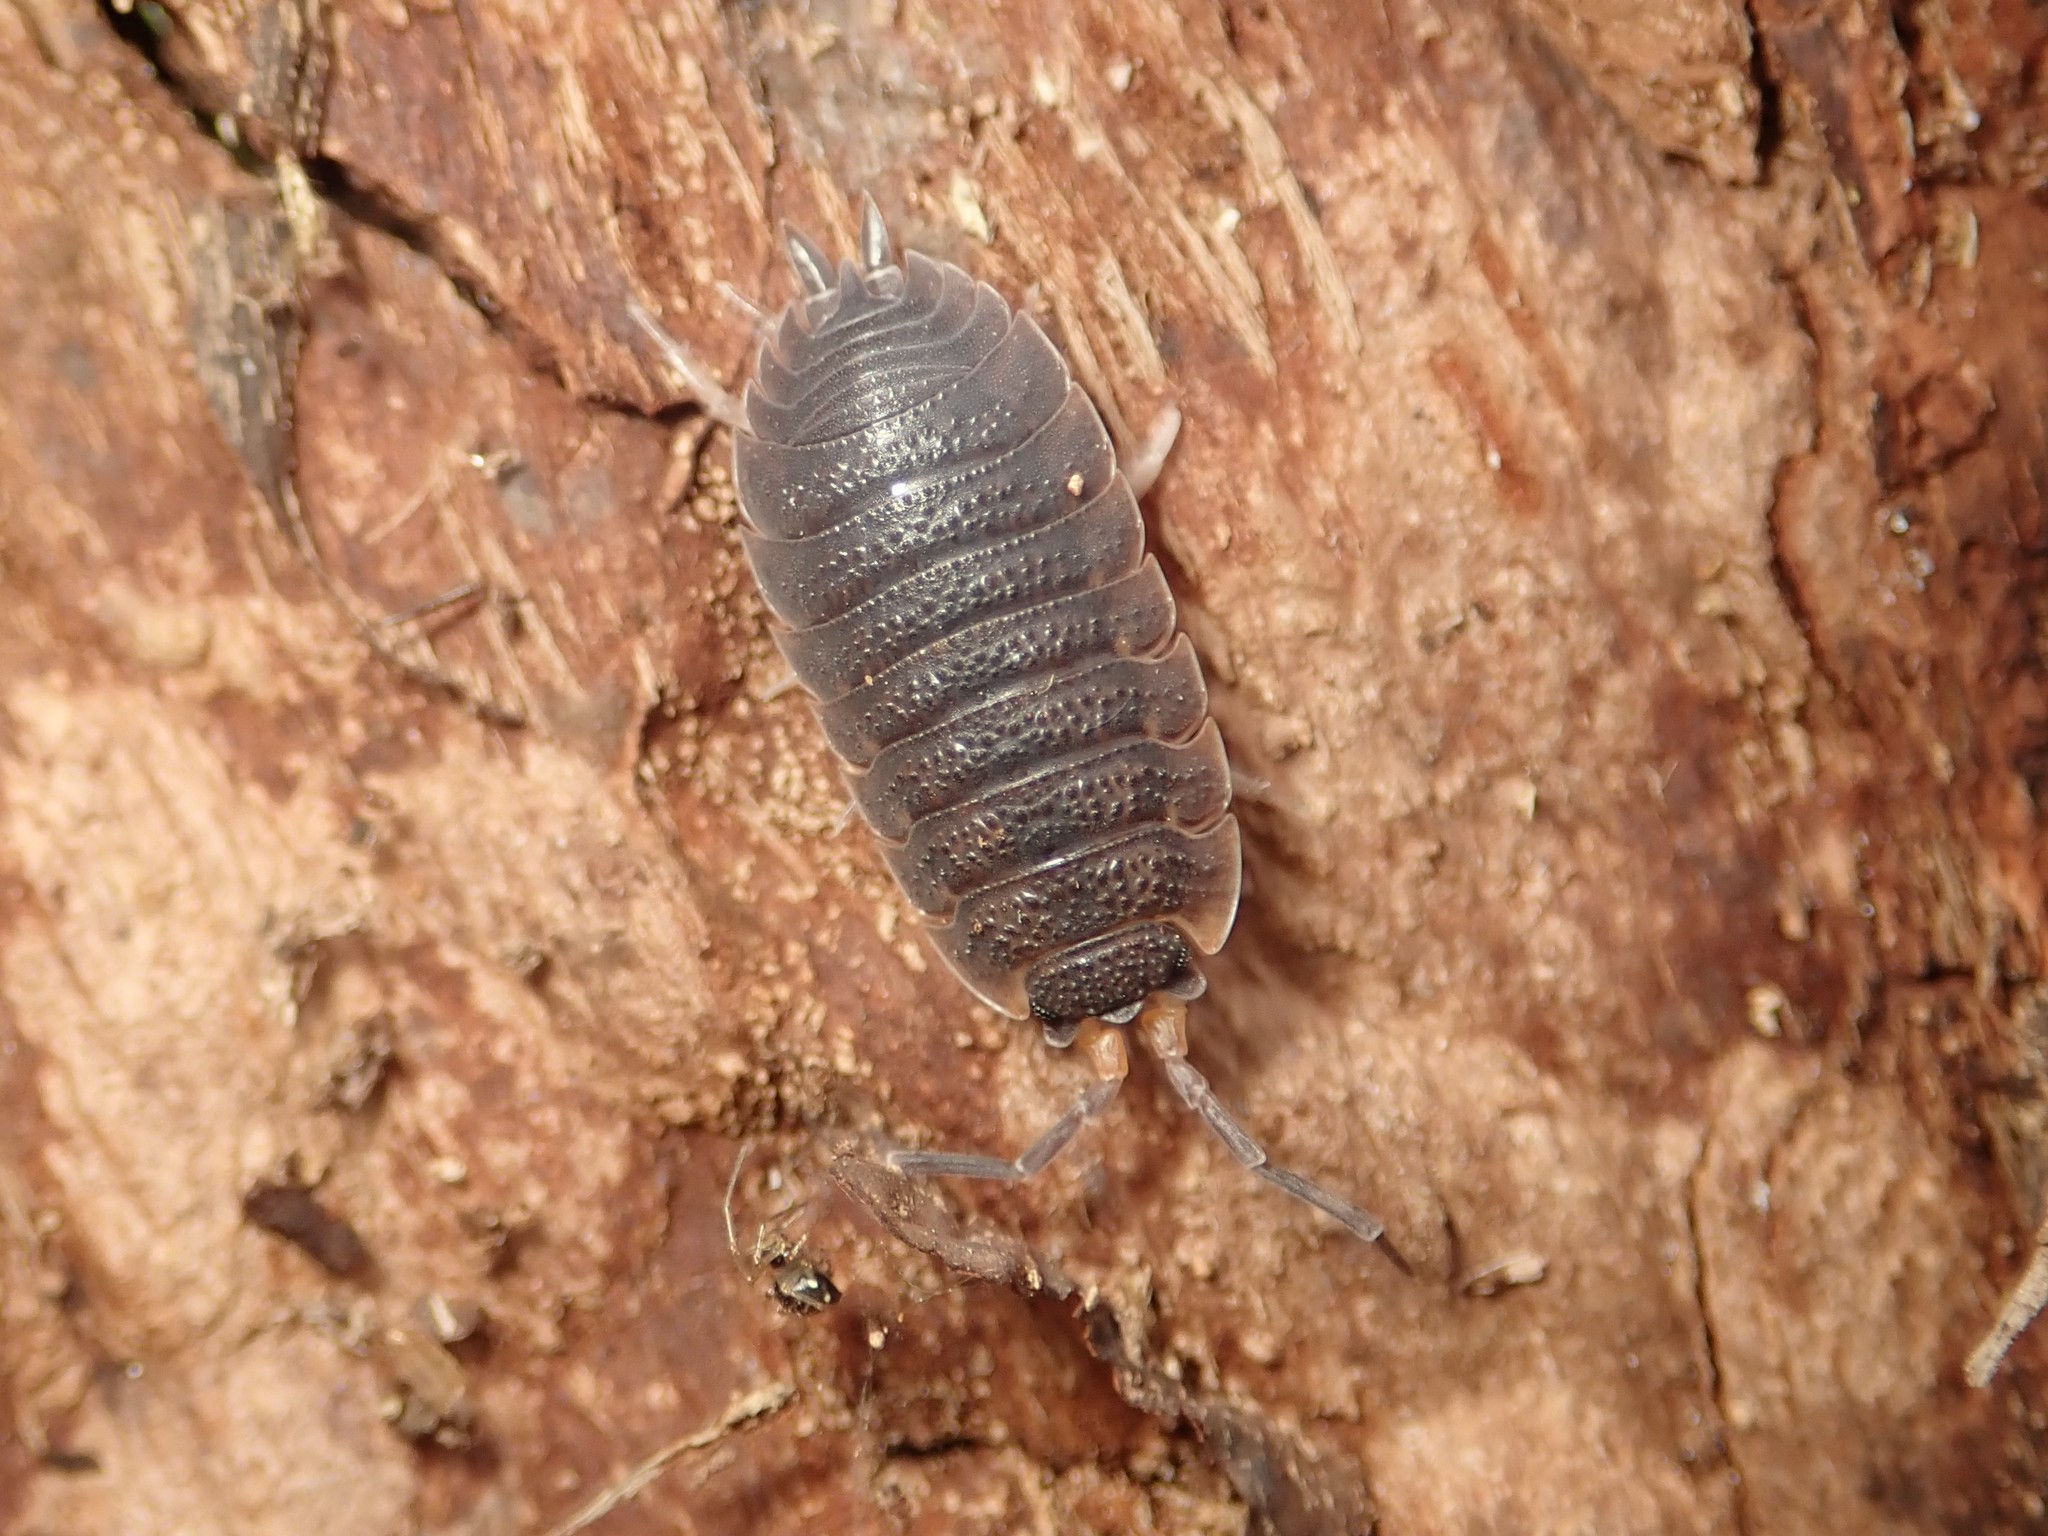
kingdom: Animalia
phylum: Arthropoda
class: Malacostraca
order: Isopoda
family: Porcellionidae
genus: Porcellio
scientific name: Porcellio scaber
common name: Common rough woodlouse
